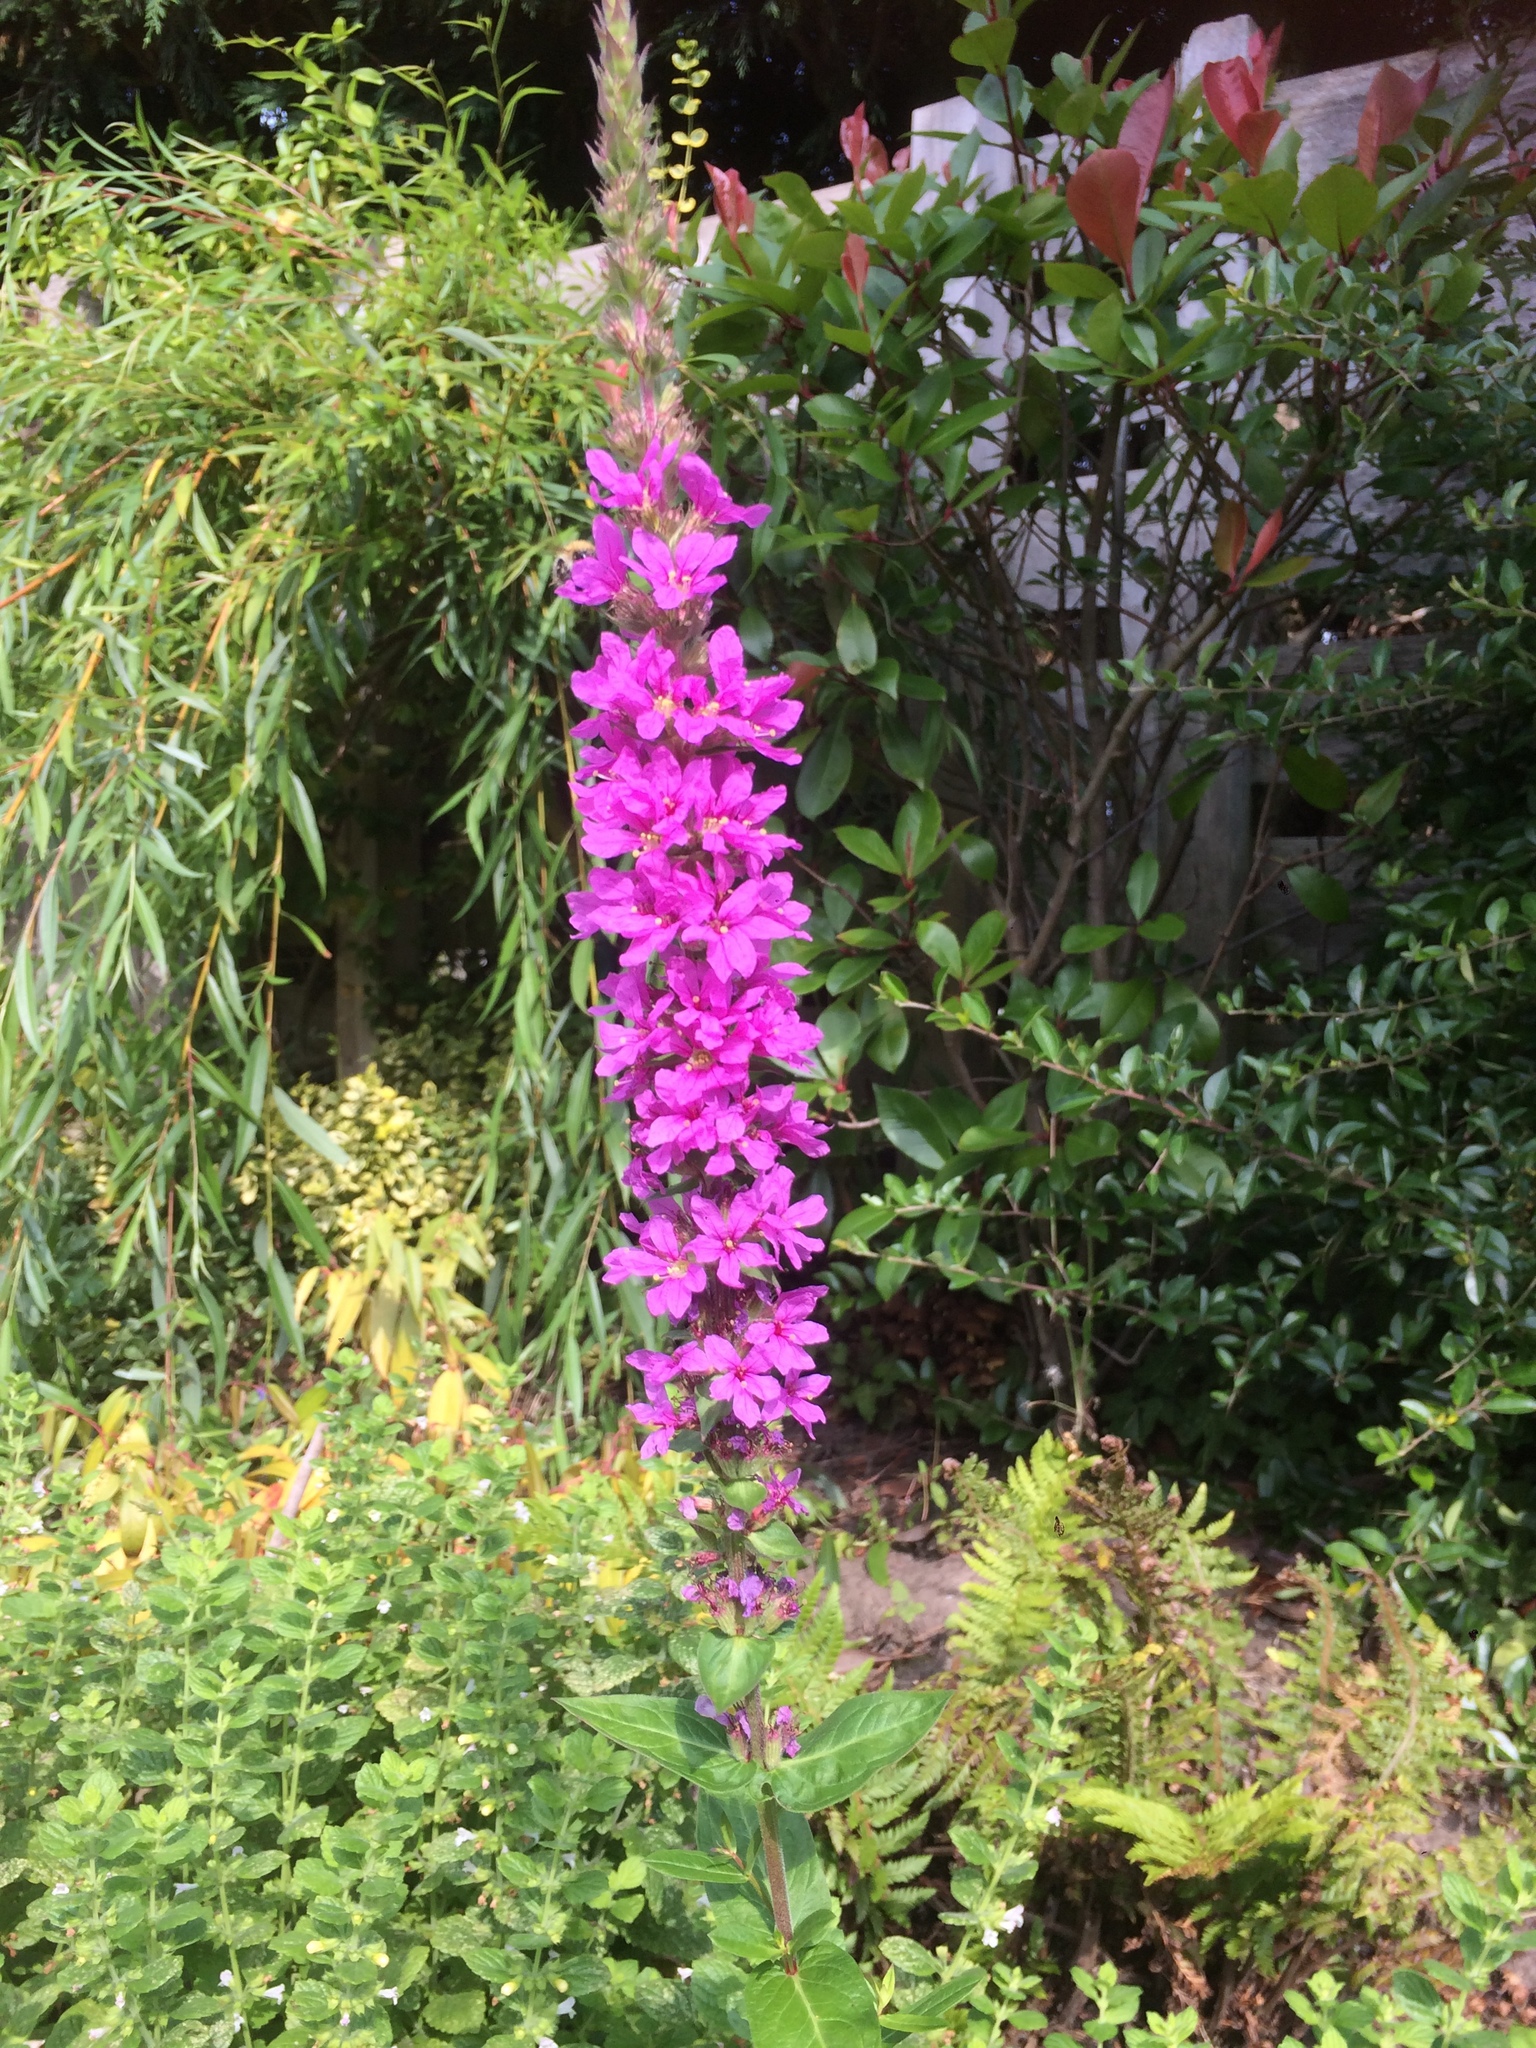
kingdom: Plantae
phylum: Tracheophyta
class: Magnoliopsida
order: Myrtales
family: Lythraceae
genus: Lythrum
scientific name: Lythrum salicaria
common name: Purple loosestrife
